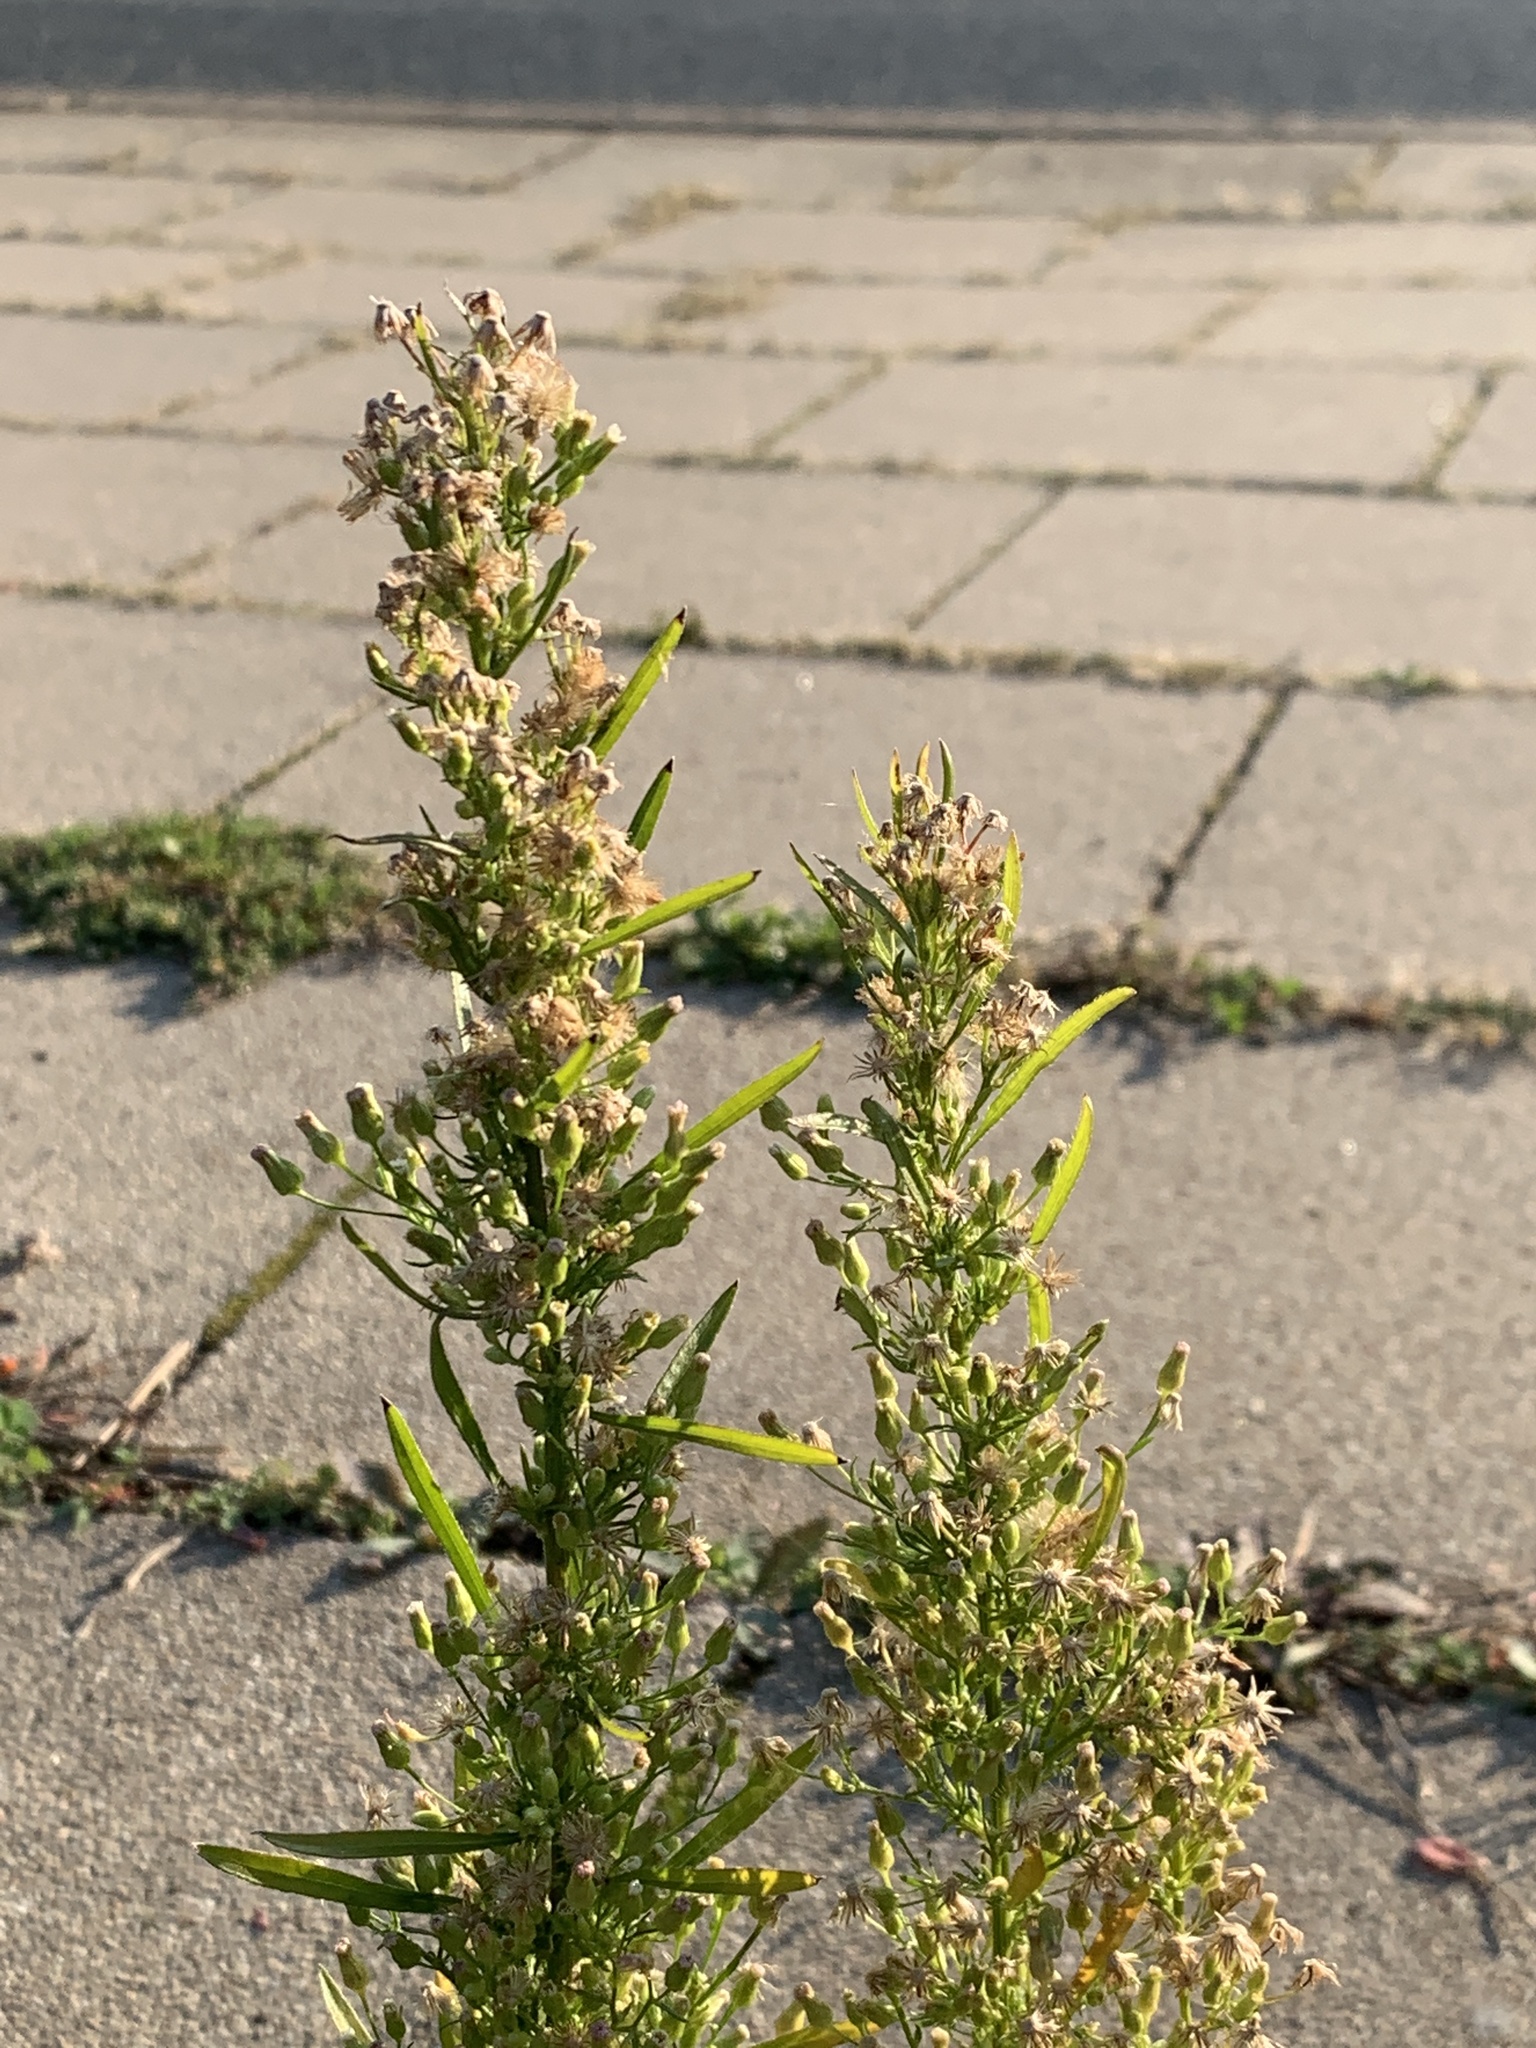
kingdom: Plantae
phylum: Tracheophyta
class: Magnoliopsida
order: Asterales
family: Asteraceae
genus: Erigeron
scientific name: Erigeron canadensis
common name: Canadian fleabane
